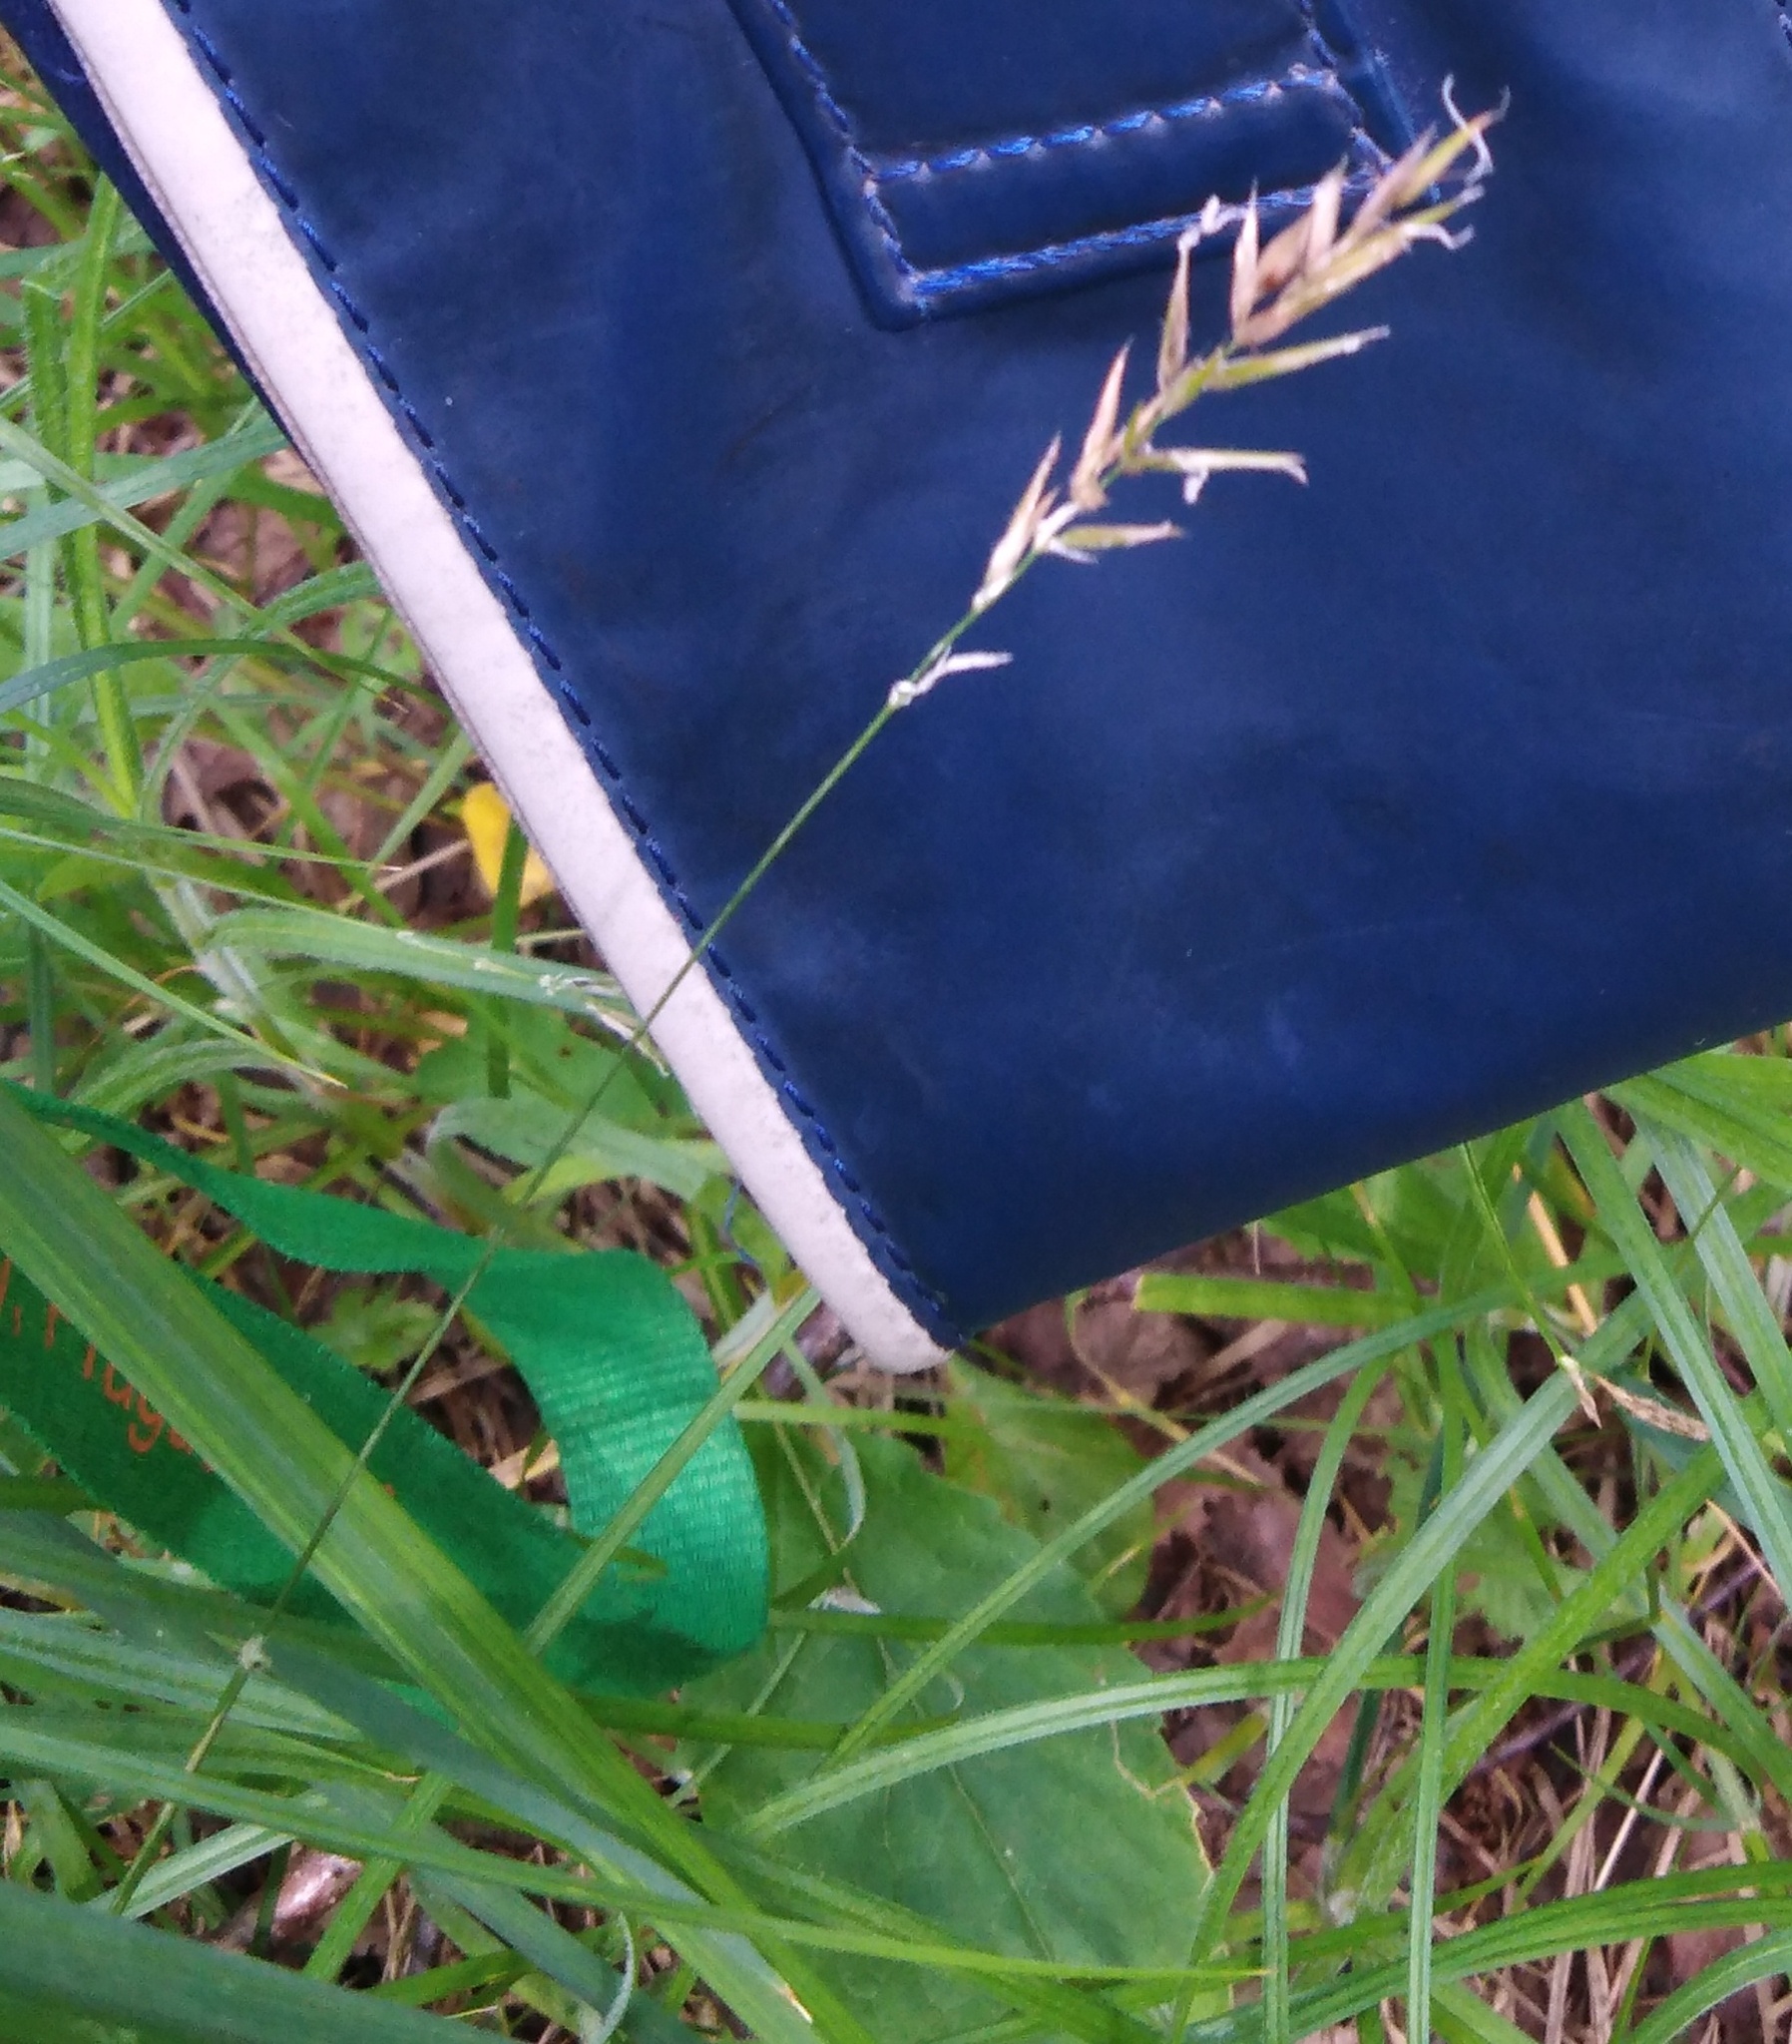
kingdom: Plantae
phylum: Tracheophyta
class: Liliopsida
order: Poales
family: Poaceae
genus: Anthoxanthum
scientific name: Anthoxanthum odoratum
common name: Sweet vernalgrass
